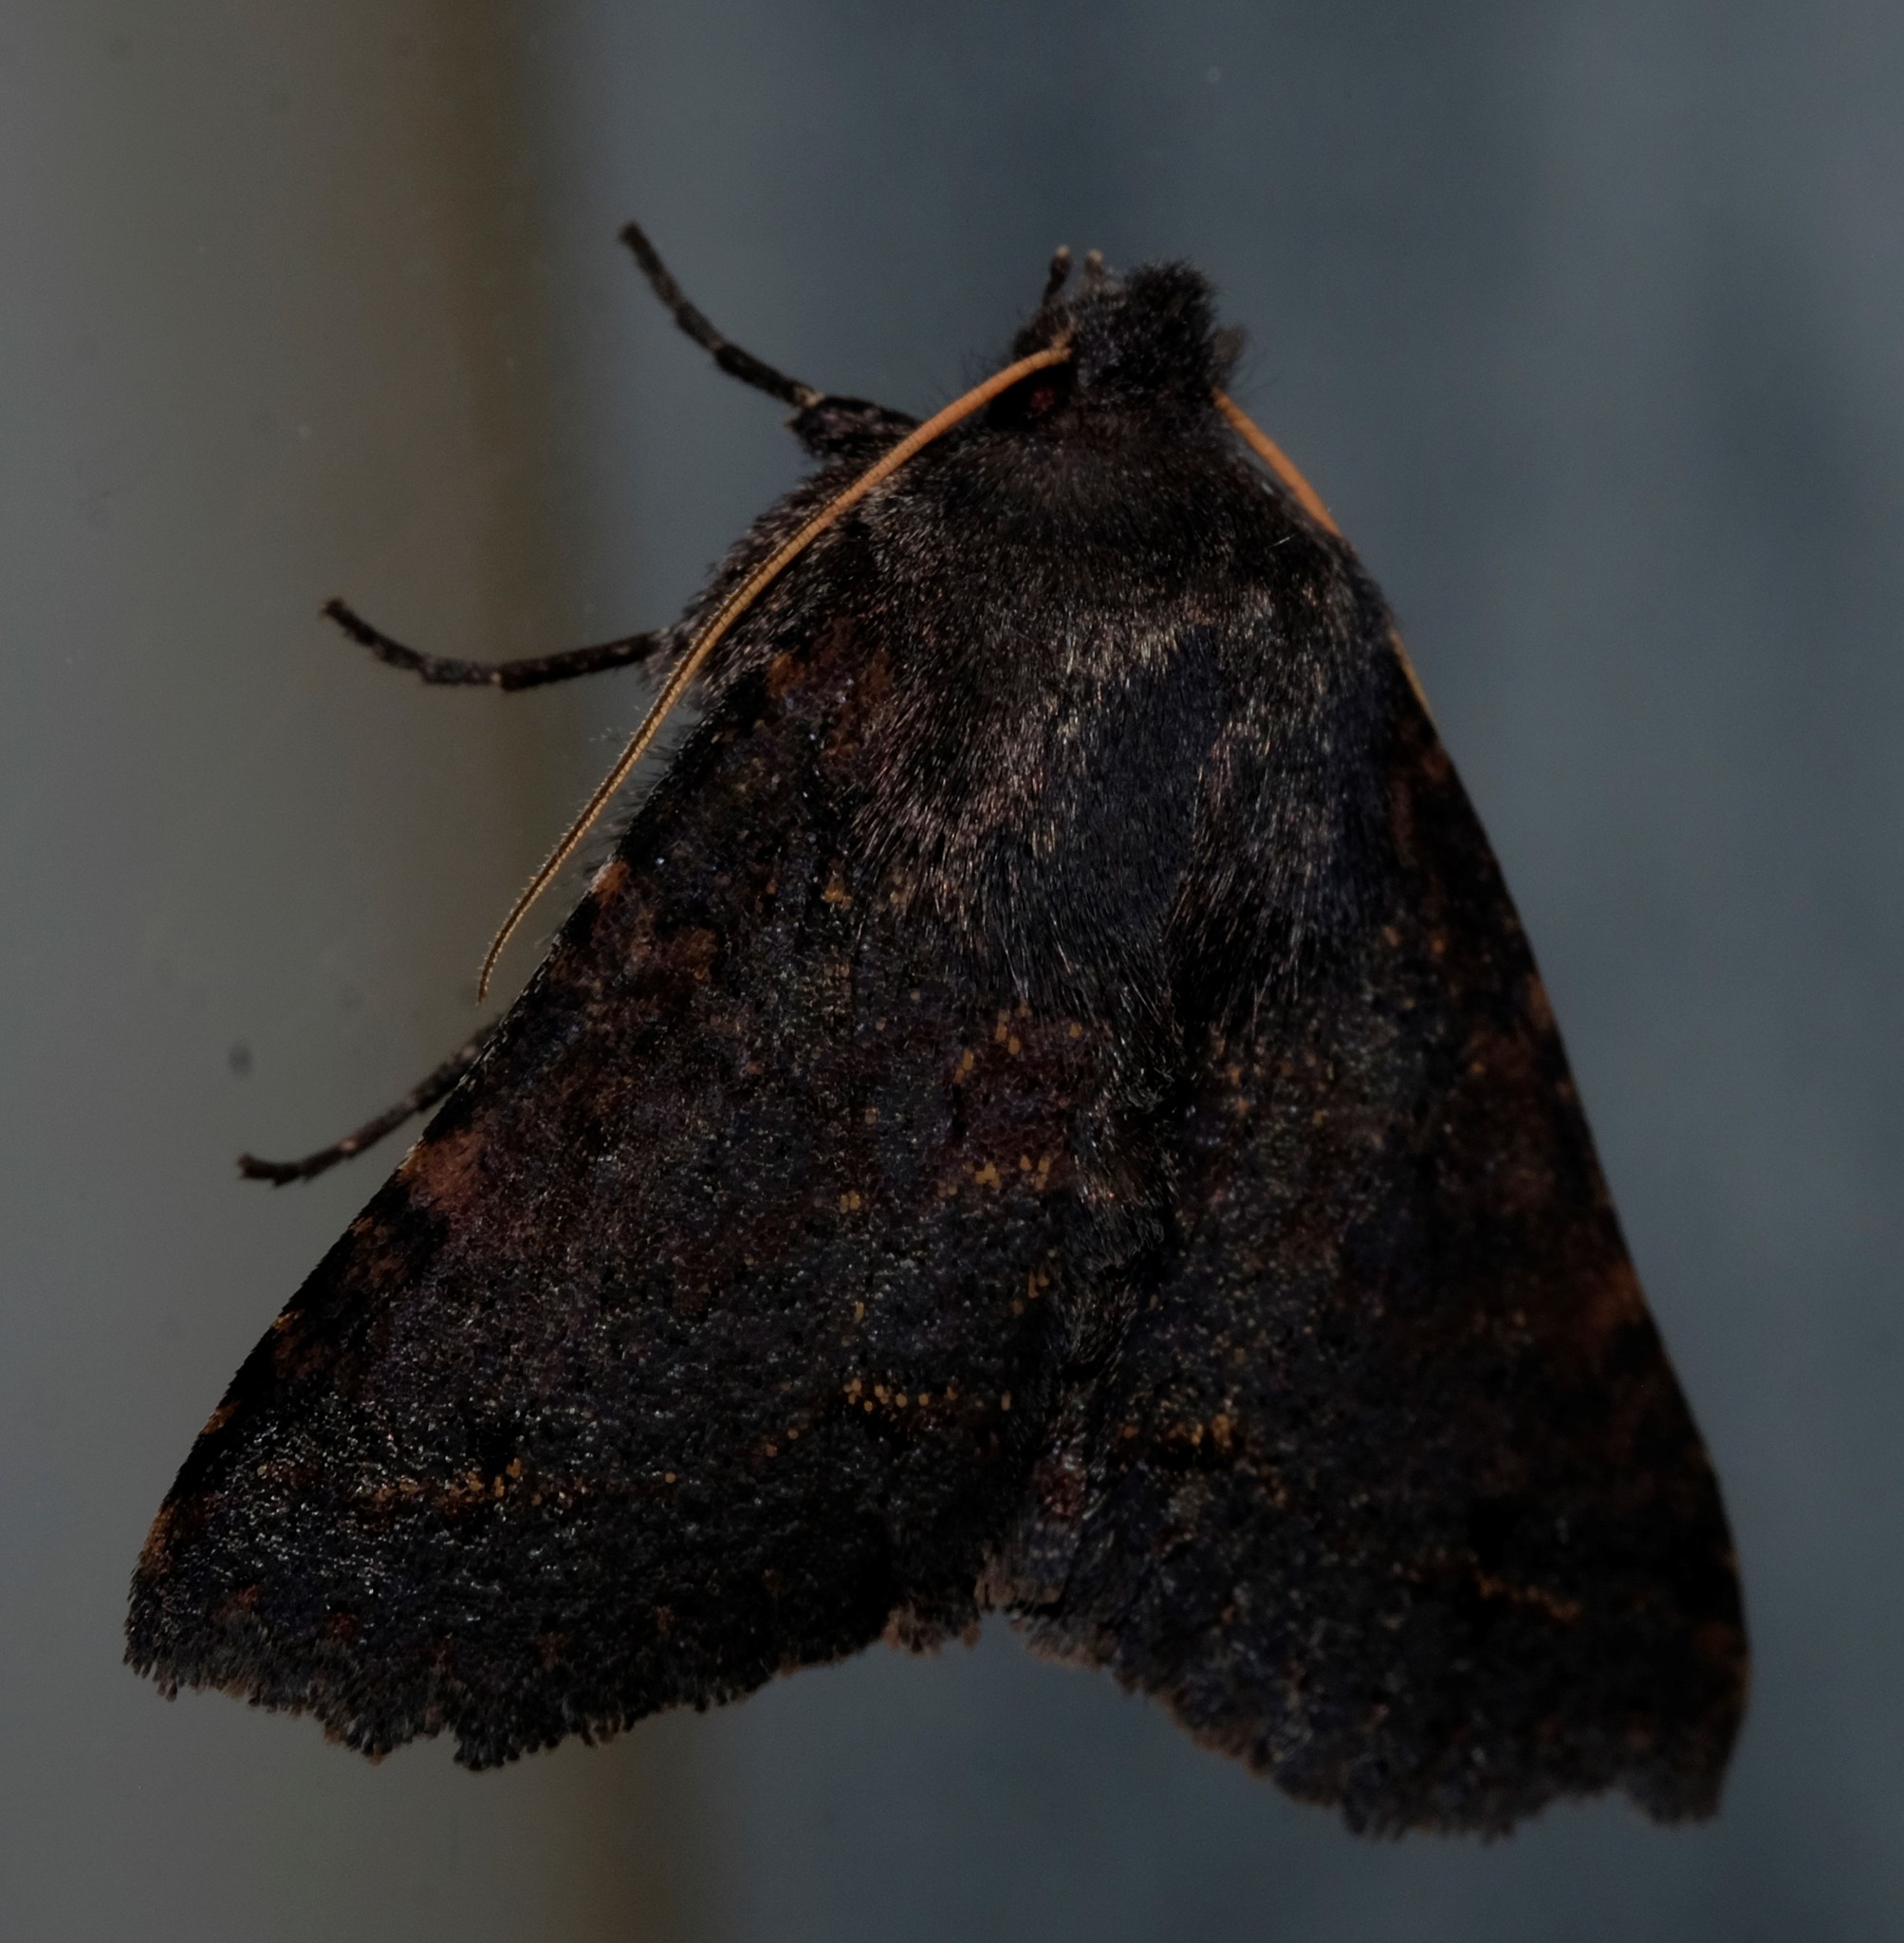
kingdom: Animalia
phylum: Arthropoda
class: Insecta
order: Lepidoptera
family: Erebidae
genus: Praxis
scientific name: Praxis pandesma
